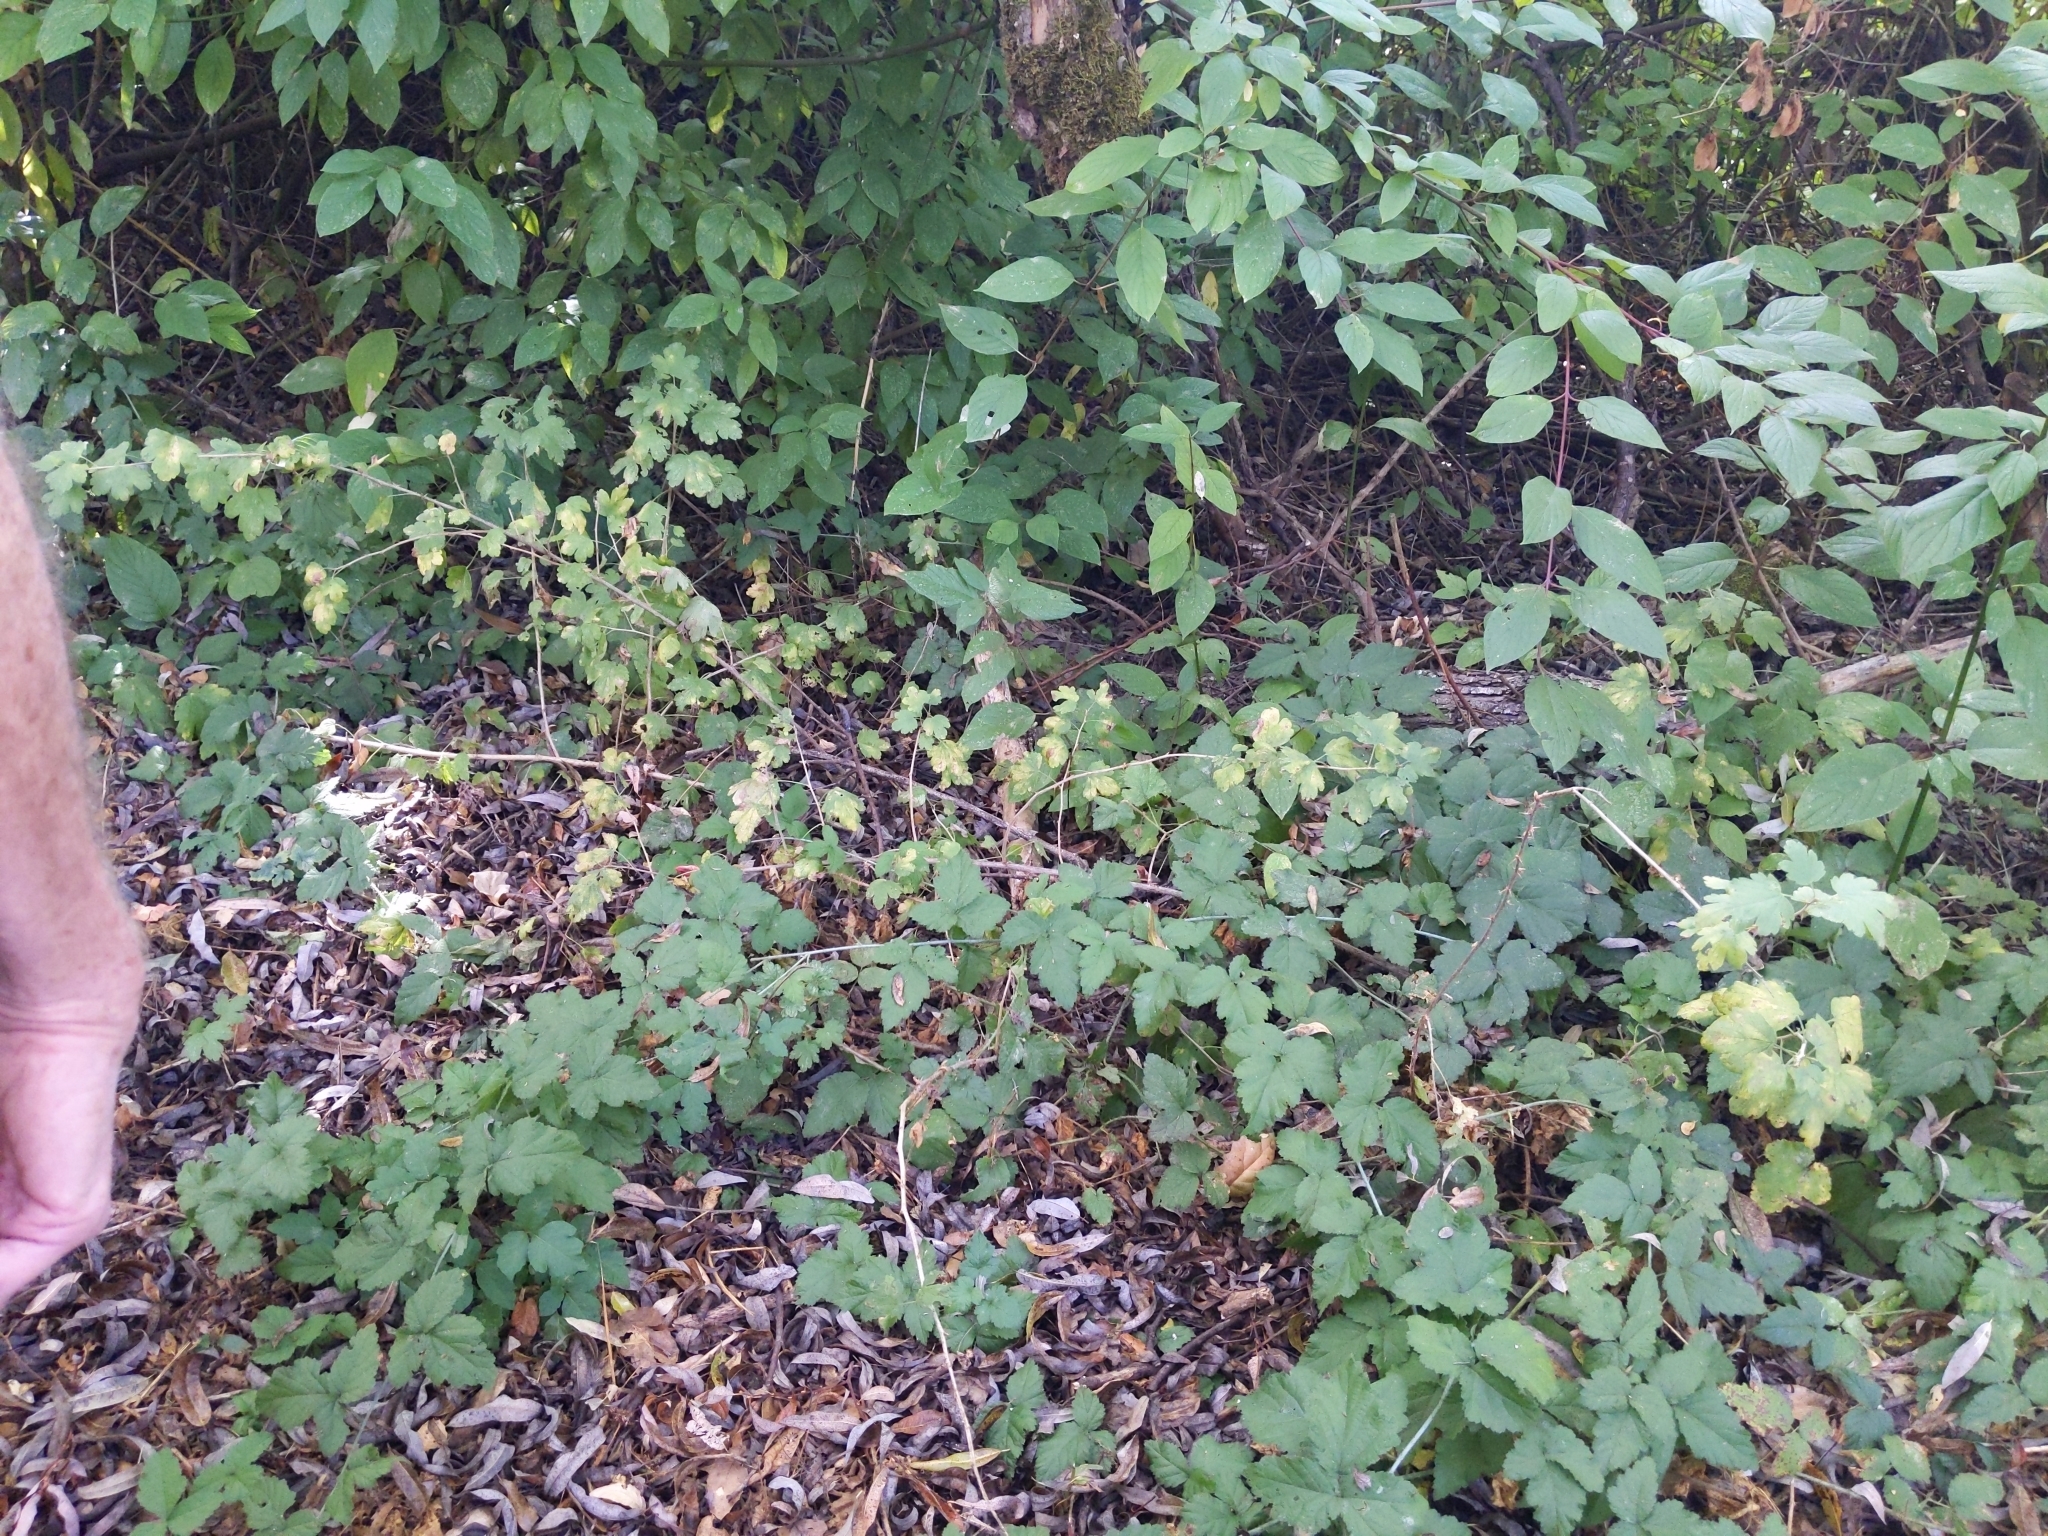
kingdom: Plantae
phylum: Tracheophyta
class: Magnoliopsida
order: Saxifragales
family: Grossulariaceae
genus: Ribes
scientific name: Ribes divaricatum
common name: Wild black gooseberry
